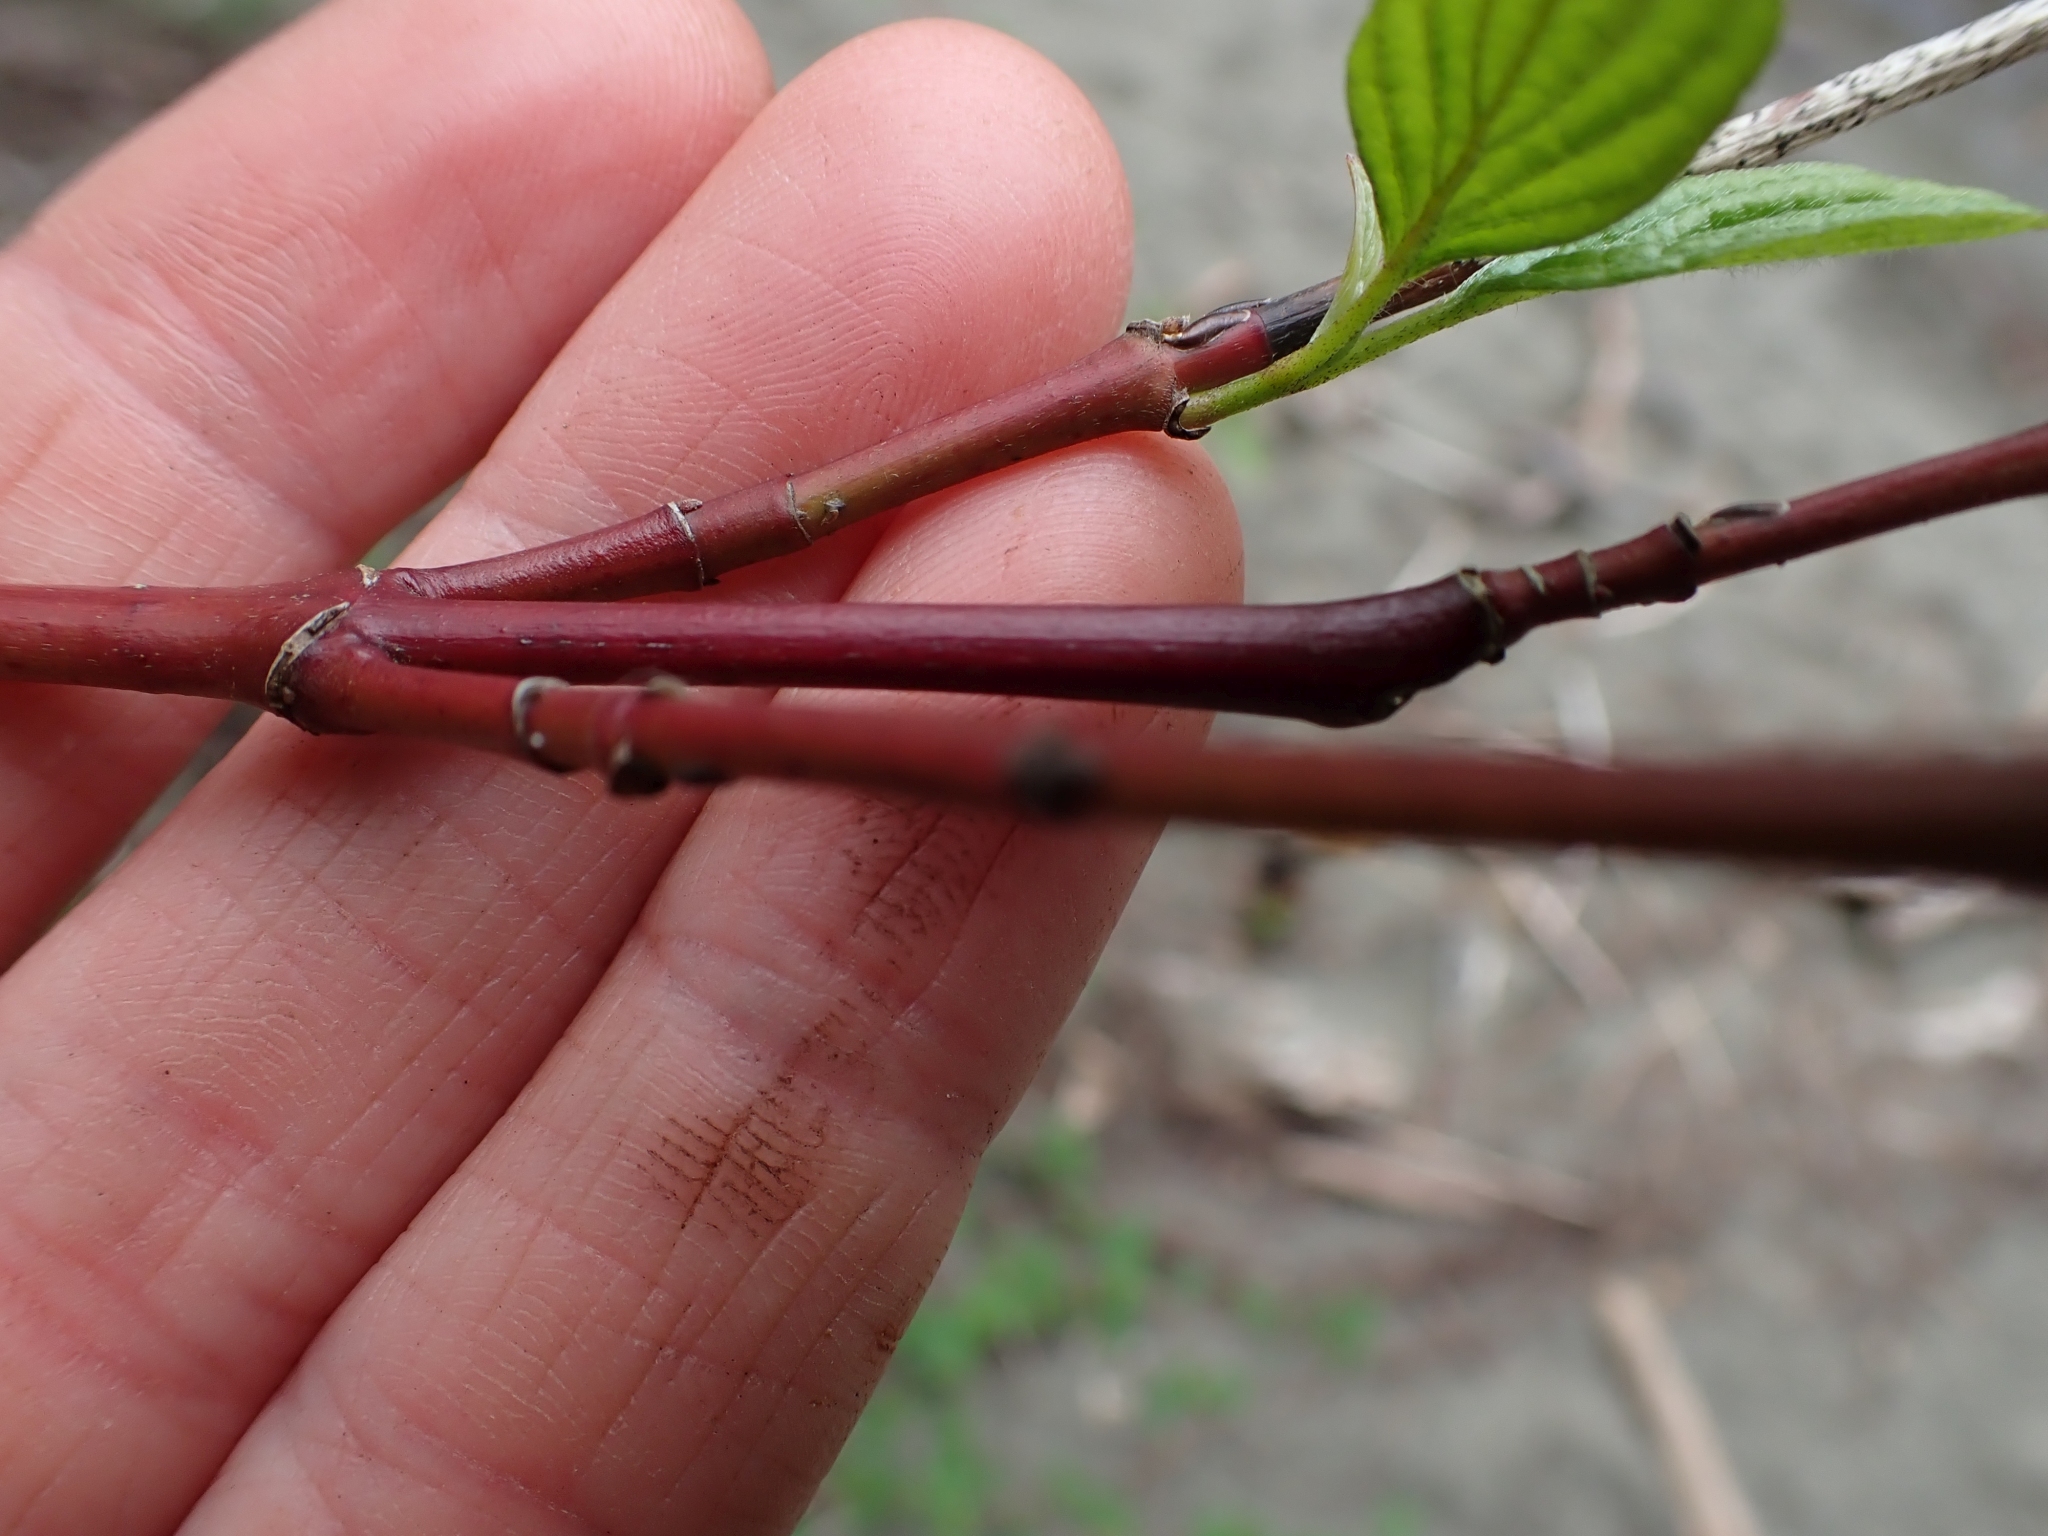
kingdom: Plantae
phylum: Tracheophyta
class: Magnoliopsida
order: Cornales
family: Cornaceae
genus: Cornus
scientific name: Cornus sericea
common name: Red-osier dogwood
